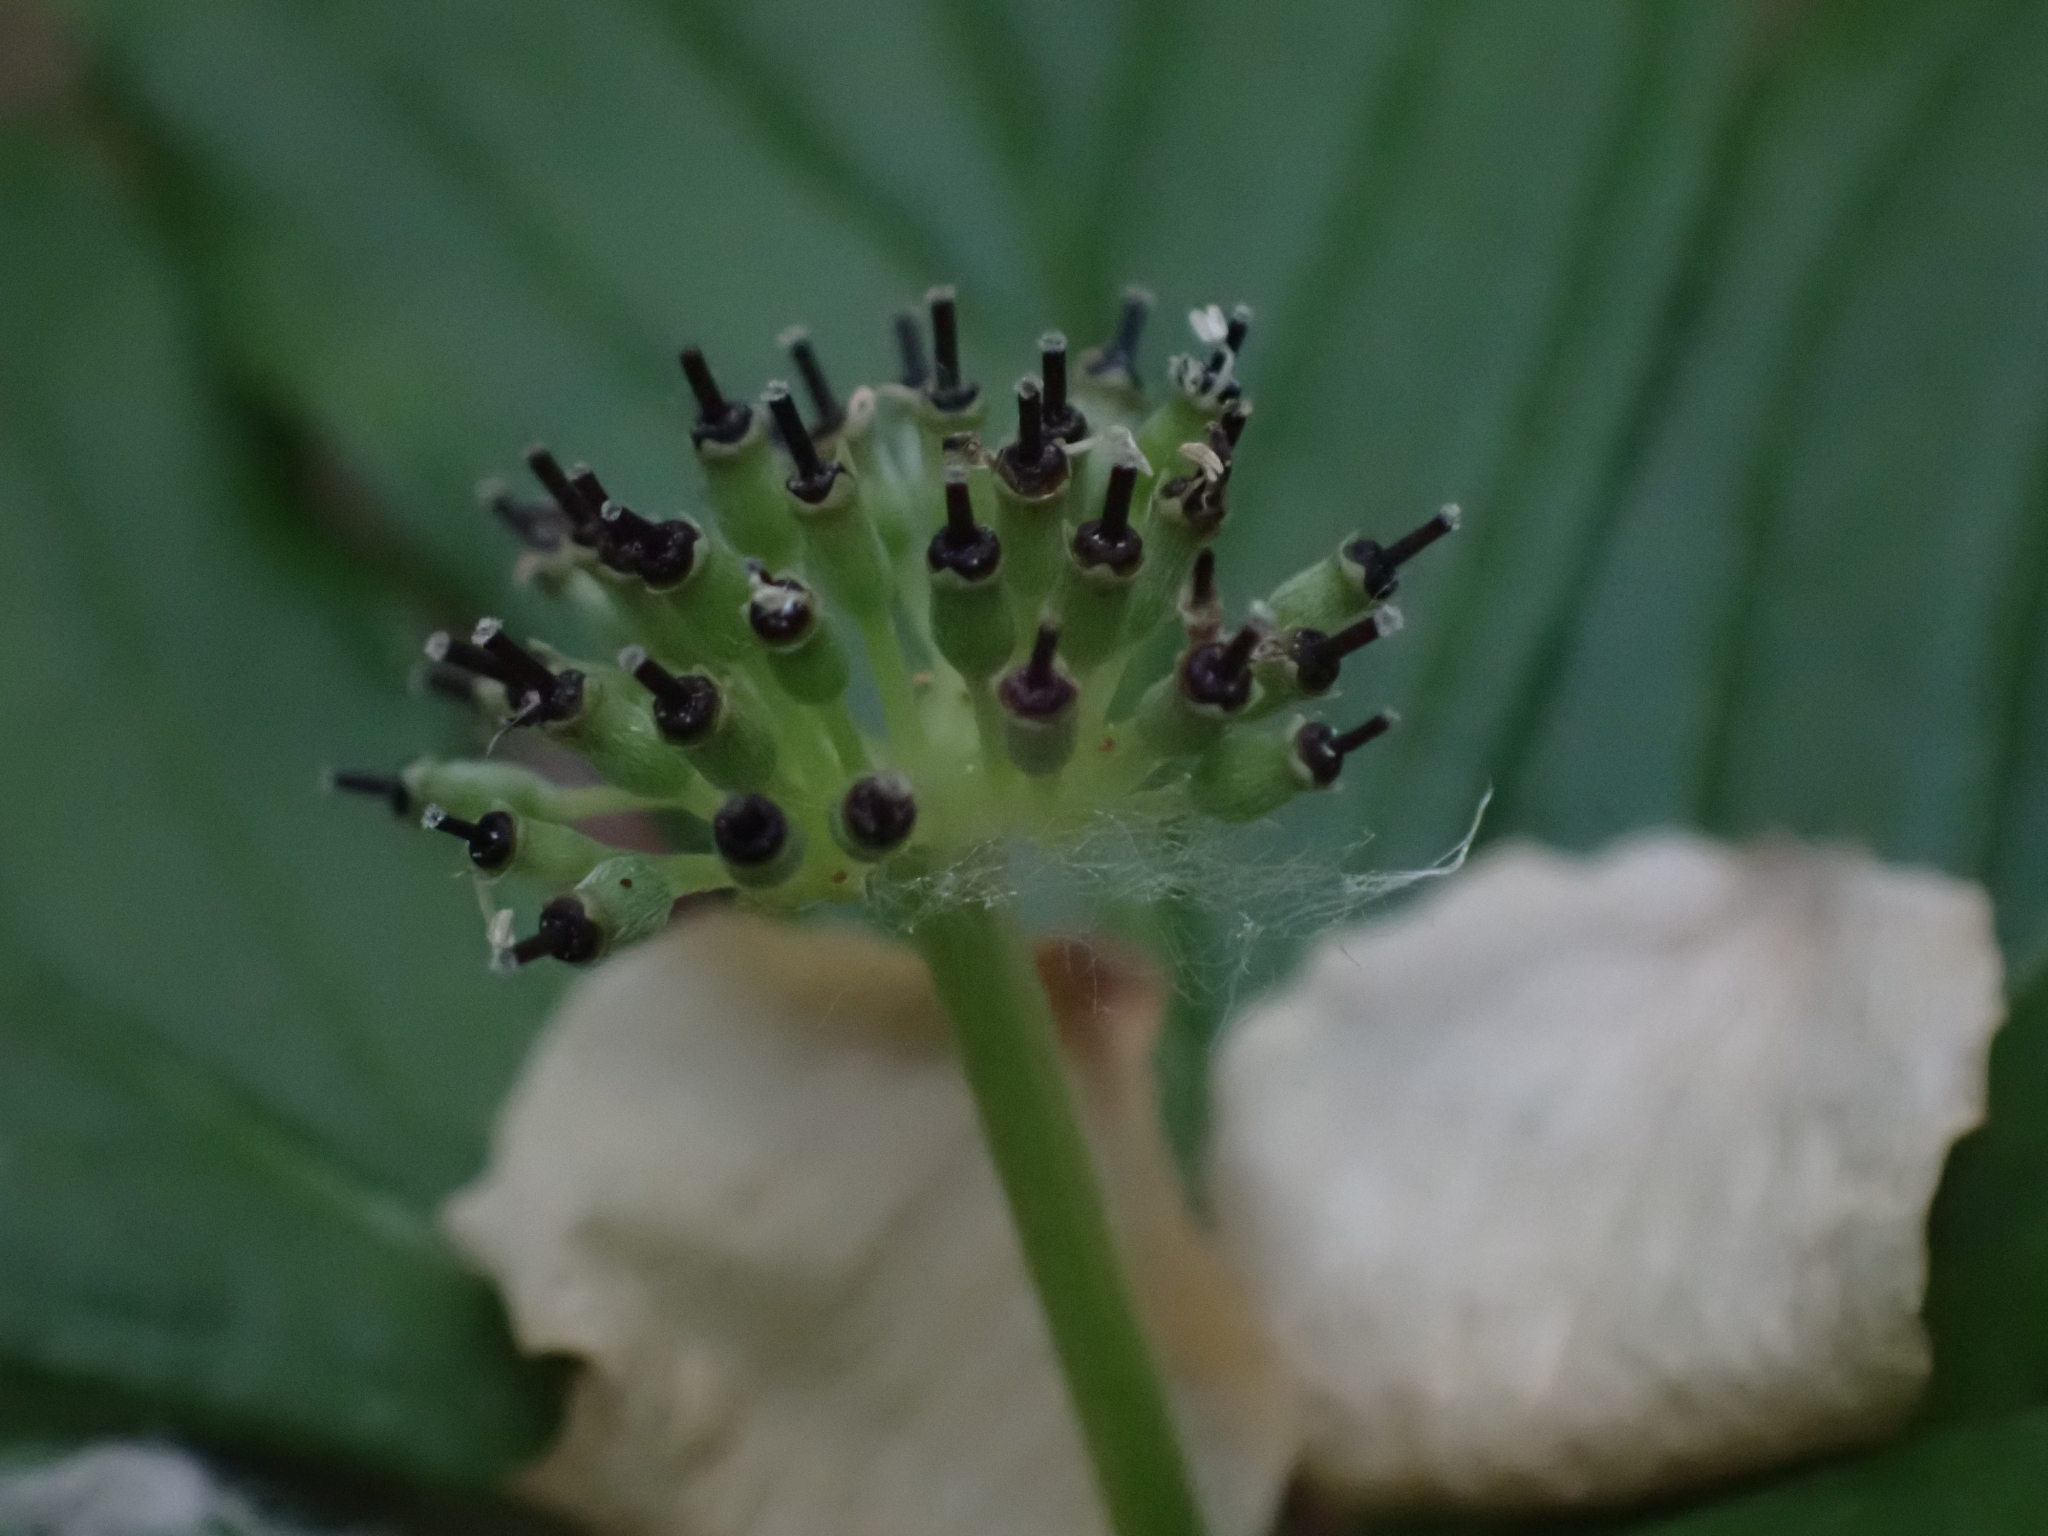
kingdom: Plantae
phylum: Tracheophyta
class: Magnoliopsida
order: Cornales
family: Cornaceae
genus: Cornus
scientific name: Cornus unalaschkensis
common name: Alaska bunchberry
